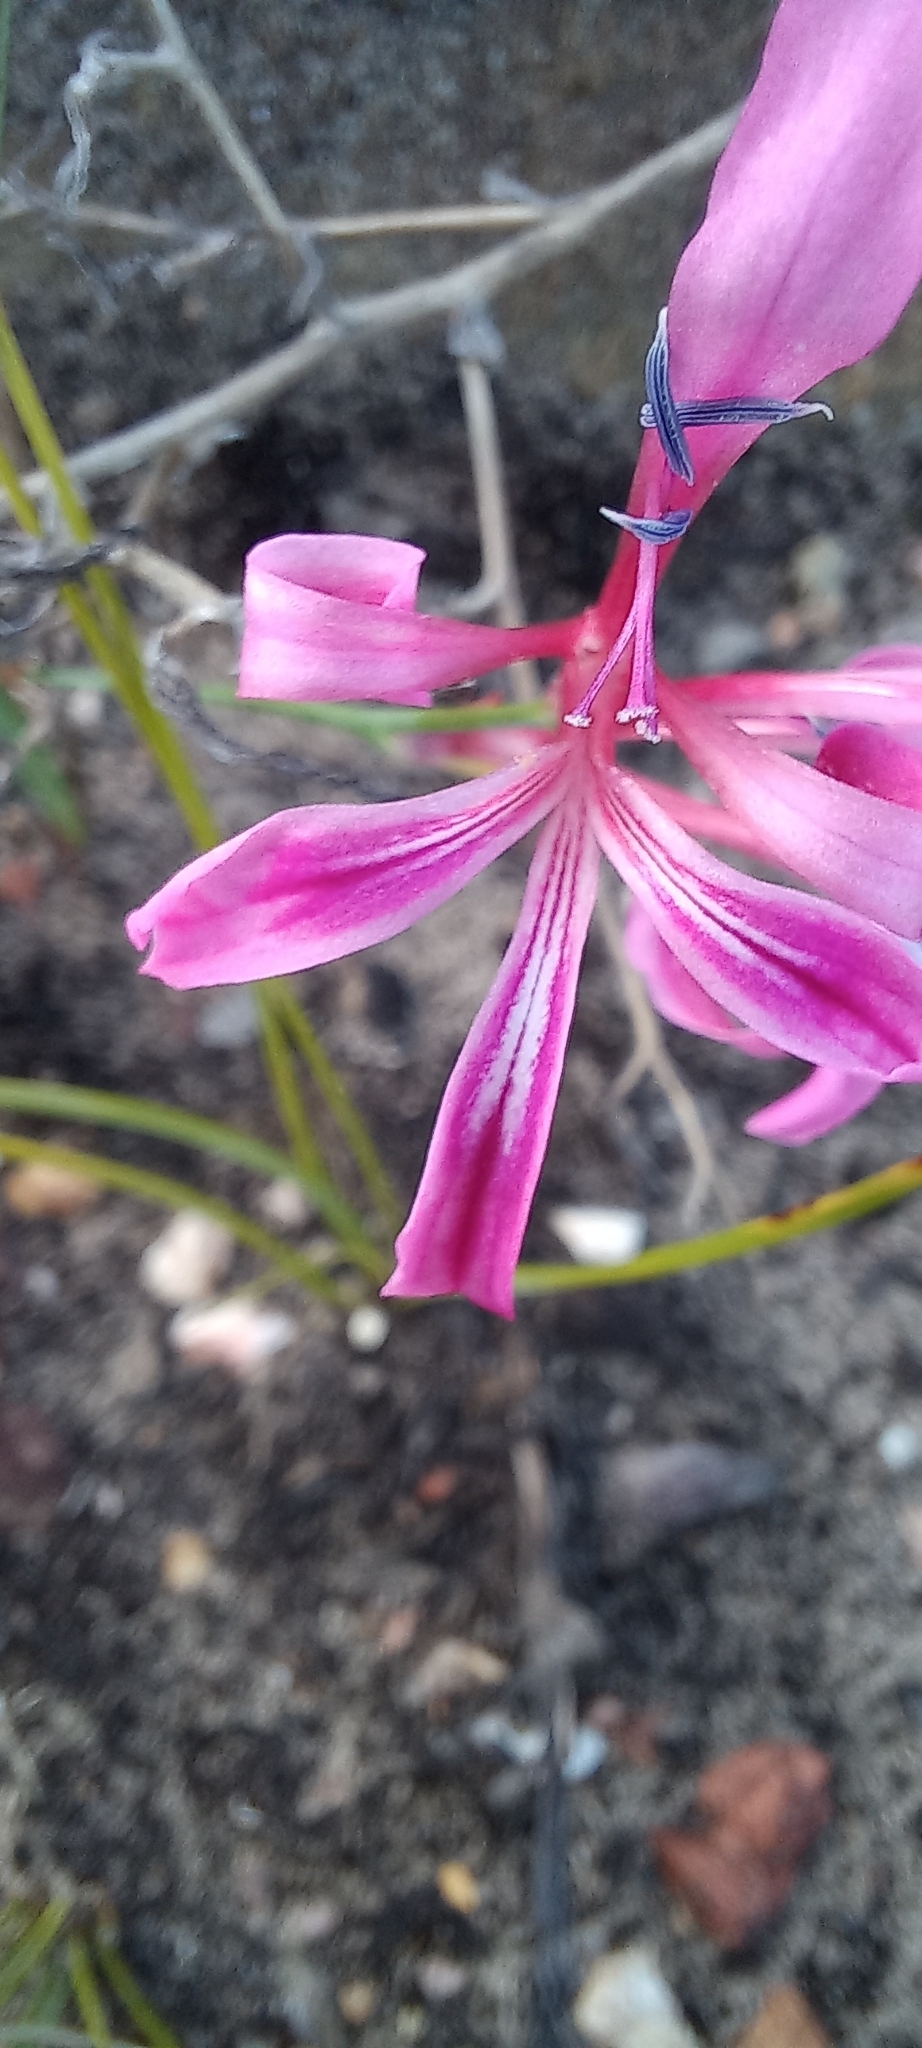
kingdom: Plantae
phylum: Tracheophyta
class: Liliopsida
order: Asparagales
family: Iridaceae
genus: Tritoniopsis
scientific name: Tritoniopsis lata
